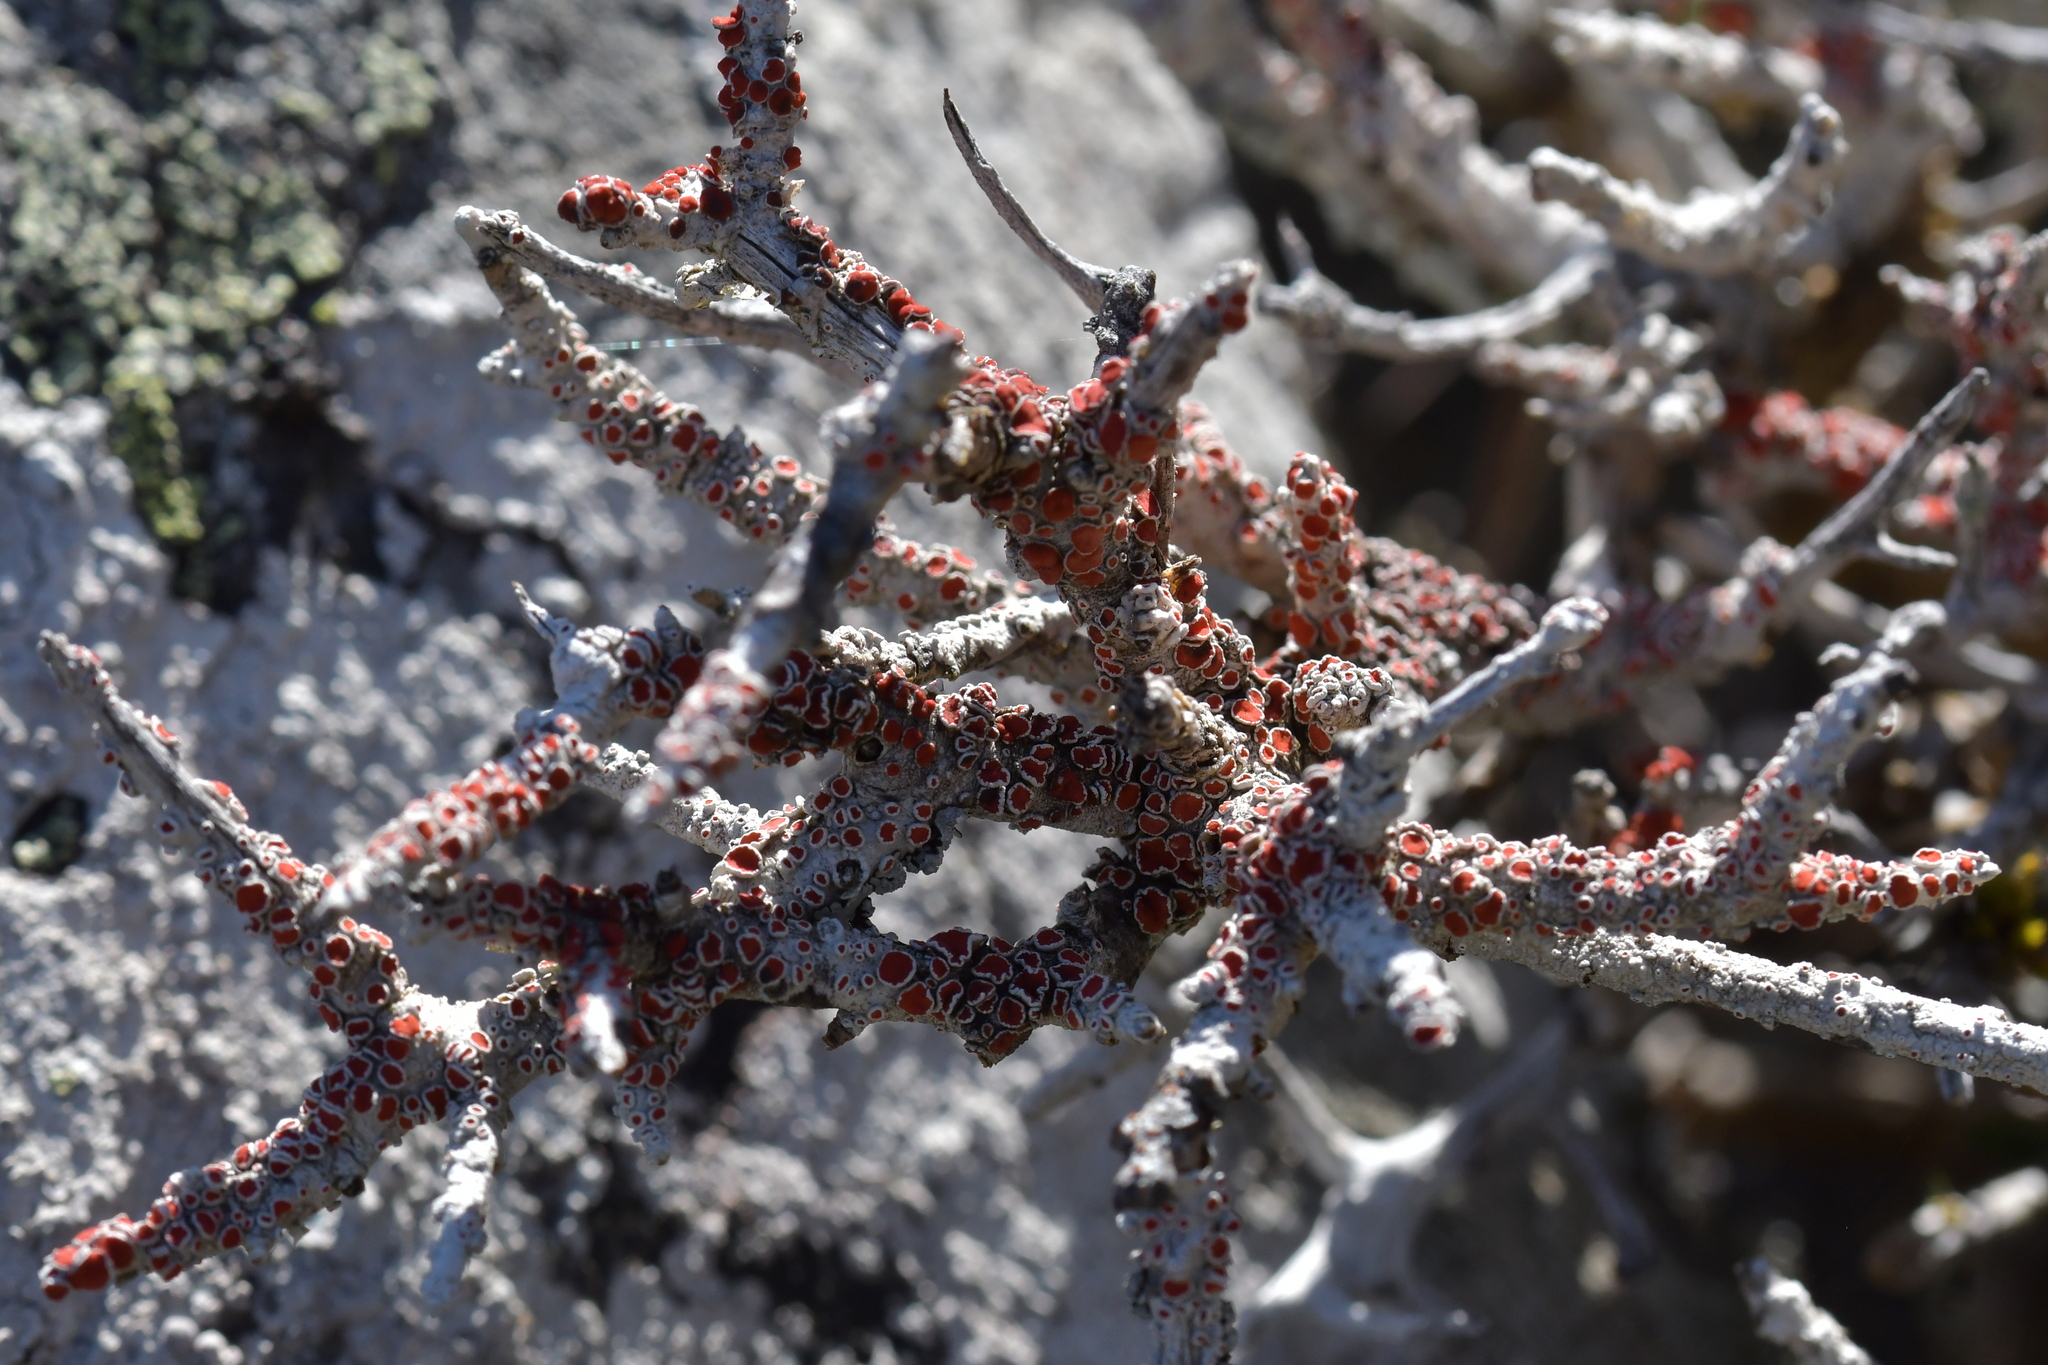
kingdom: Fungi
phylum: Ascomycota
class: Lecanoromycetes
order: Lecanorales
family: Haematommataceae
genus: Haematomma
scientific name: Haematomma
